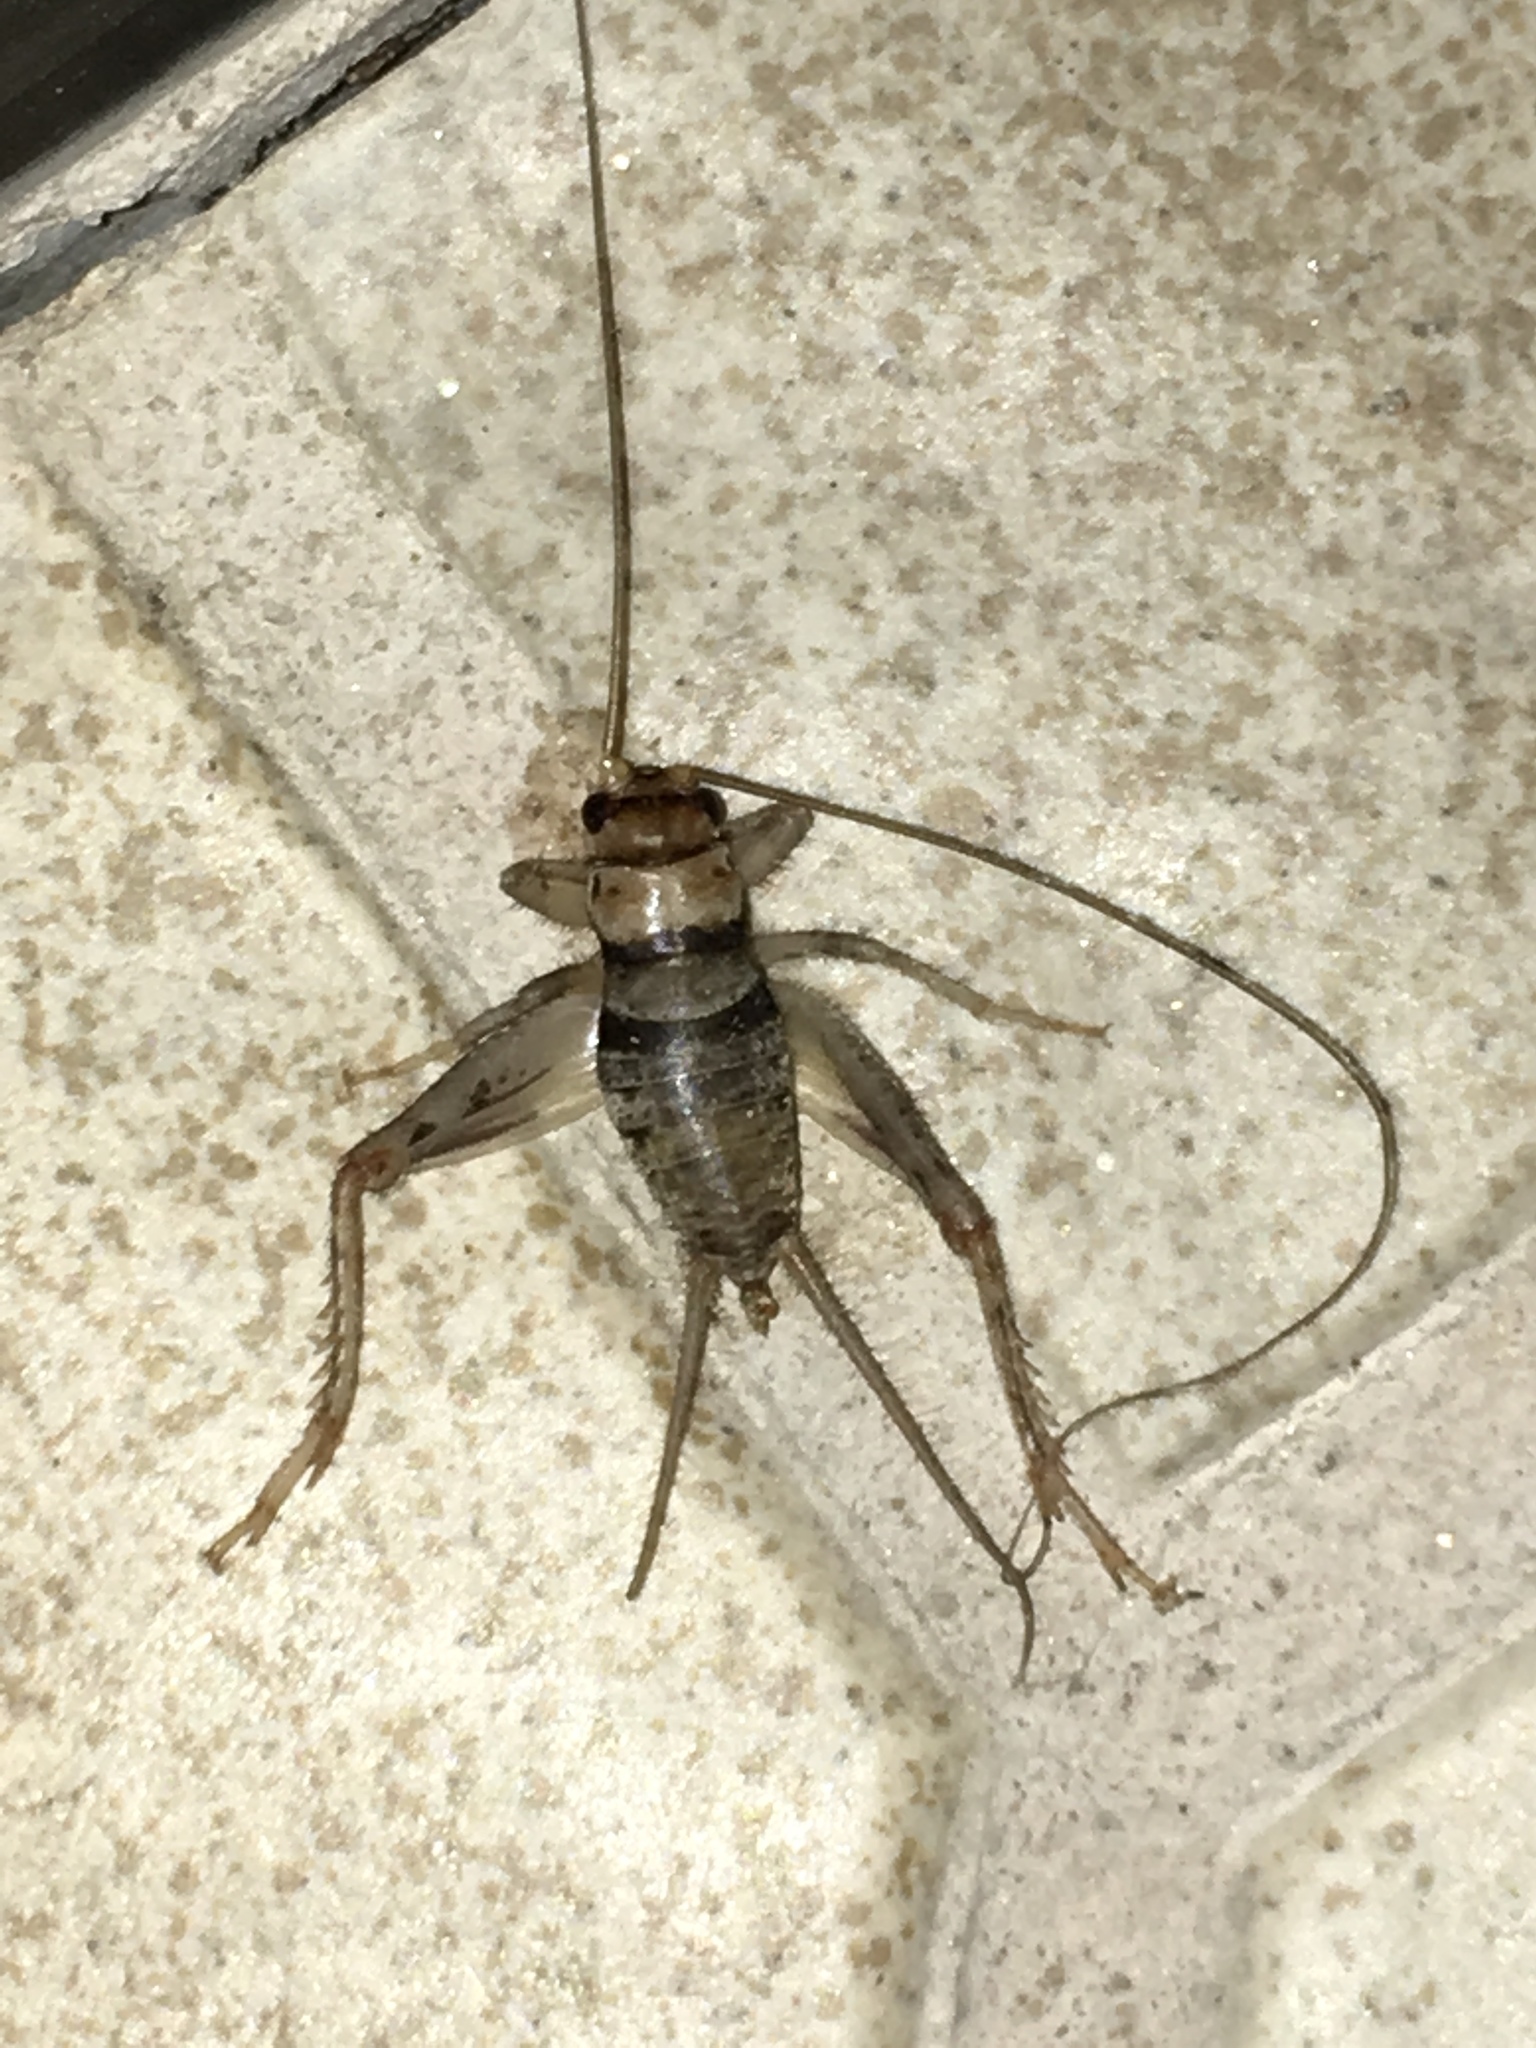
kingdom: Animalia
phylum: Arthropoda
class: Insecta
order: Orthoptera
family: Gryllidae
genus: Gryllodes
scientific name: Gryllodes sigillatus
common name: Tropical house cricket
